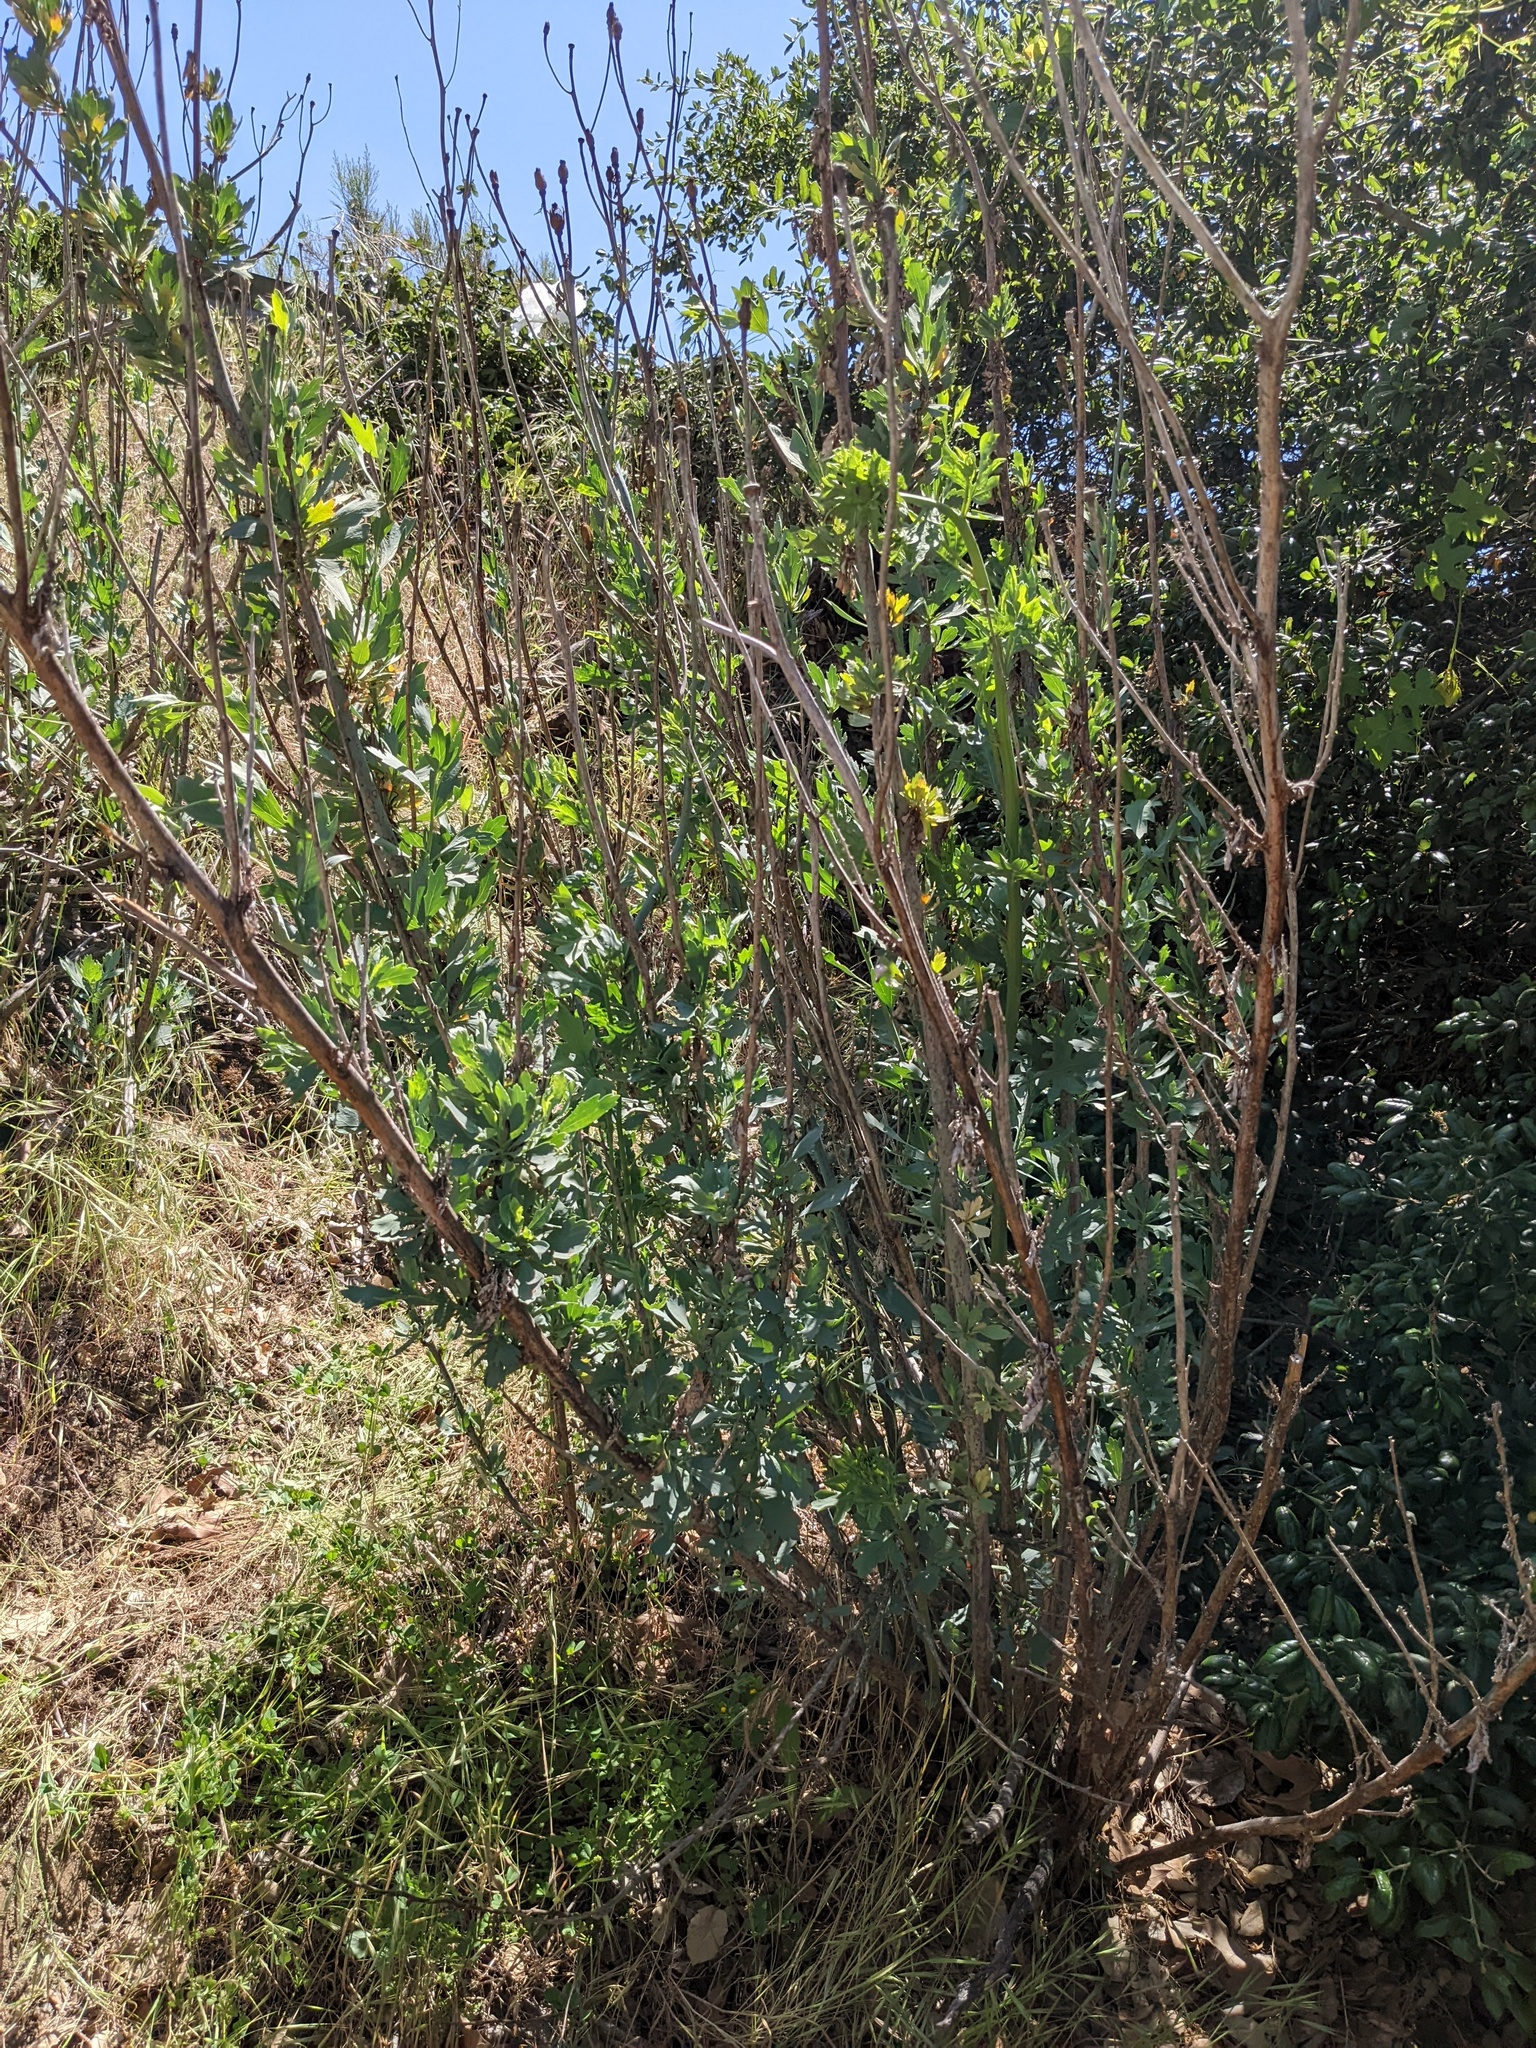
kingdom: Plantae
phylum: Tracheophyta
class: Magnoliopsida
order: Ranunculales
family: Papaveraceae
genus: Romneya
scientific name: Romneya trichocalyx
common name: Hairy matilija-poppy
